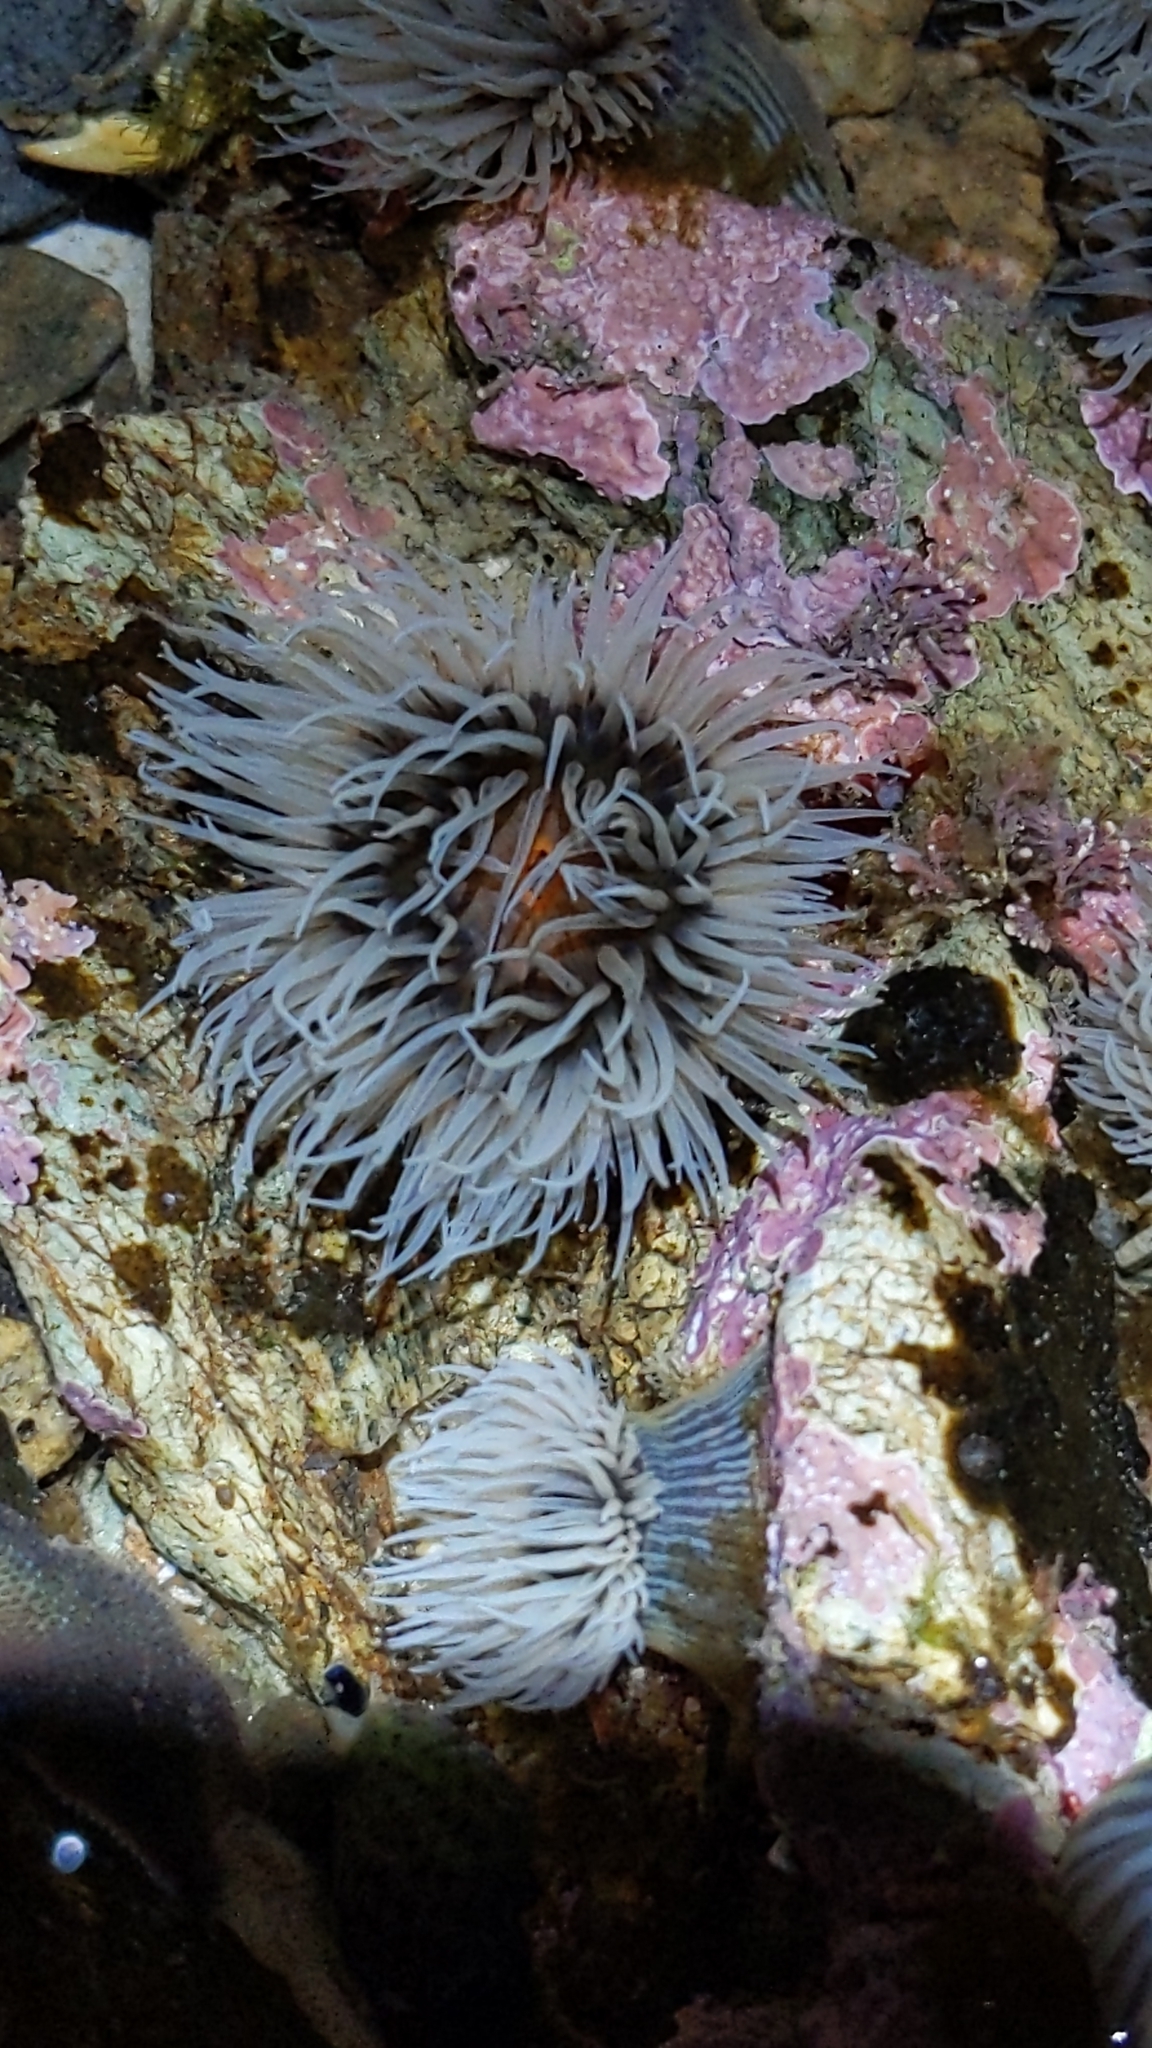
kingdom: Animalia
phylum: Cnidaria
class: Anthozoa
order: Actiniaria
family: Diadumenidae
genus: Diadumene
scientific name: Diadumene neozelanica
